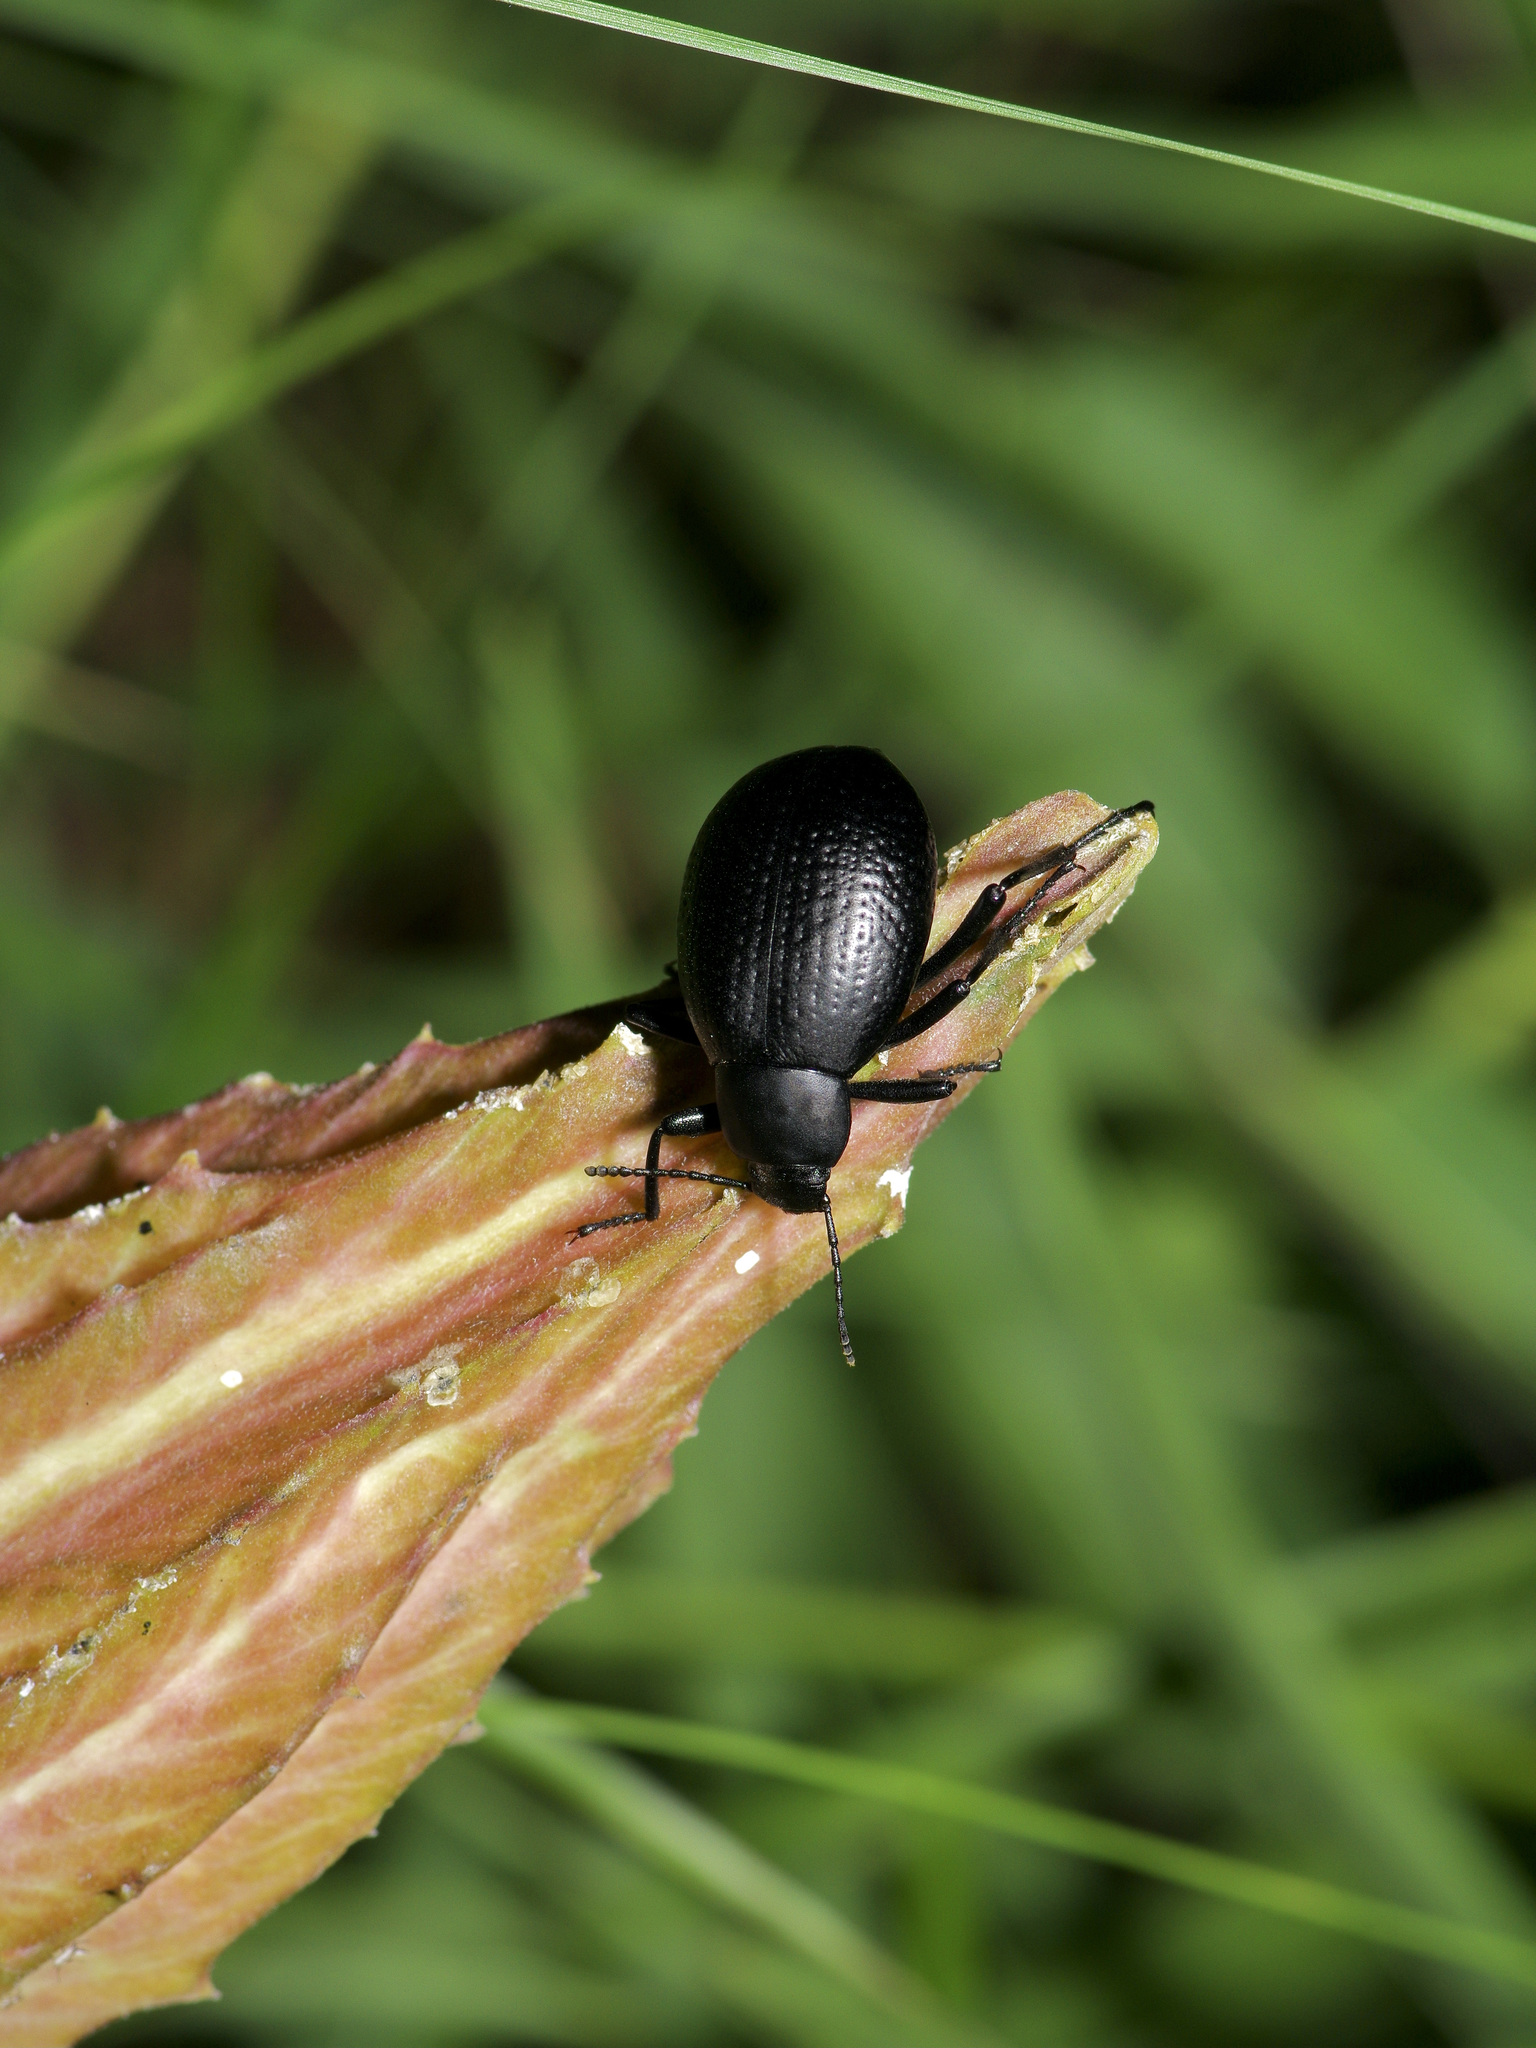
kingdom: Animalia
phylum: Arthropoda
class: Insecta
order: Coleoptera
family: Tenebrionidae
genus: Eleodes
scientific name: Eleodes goryi
